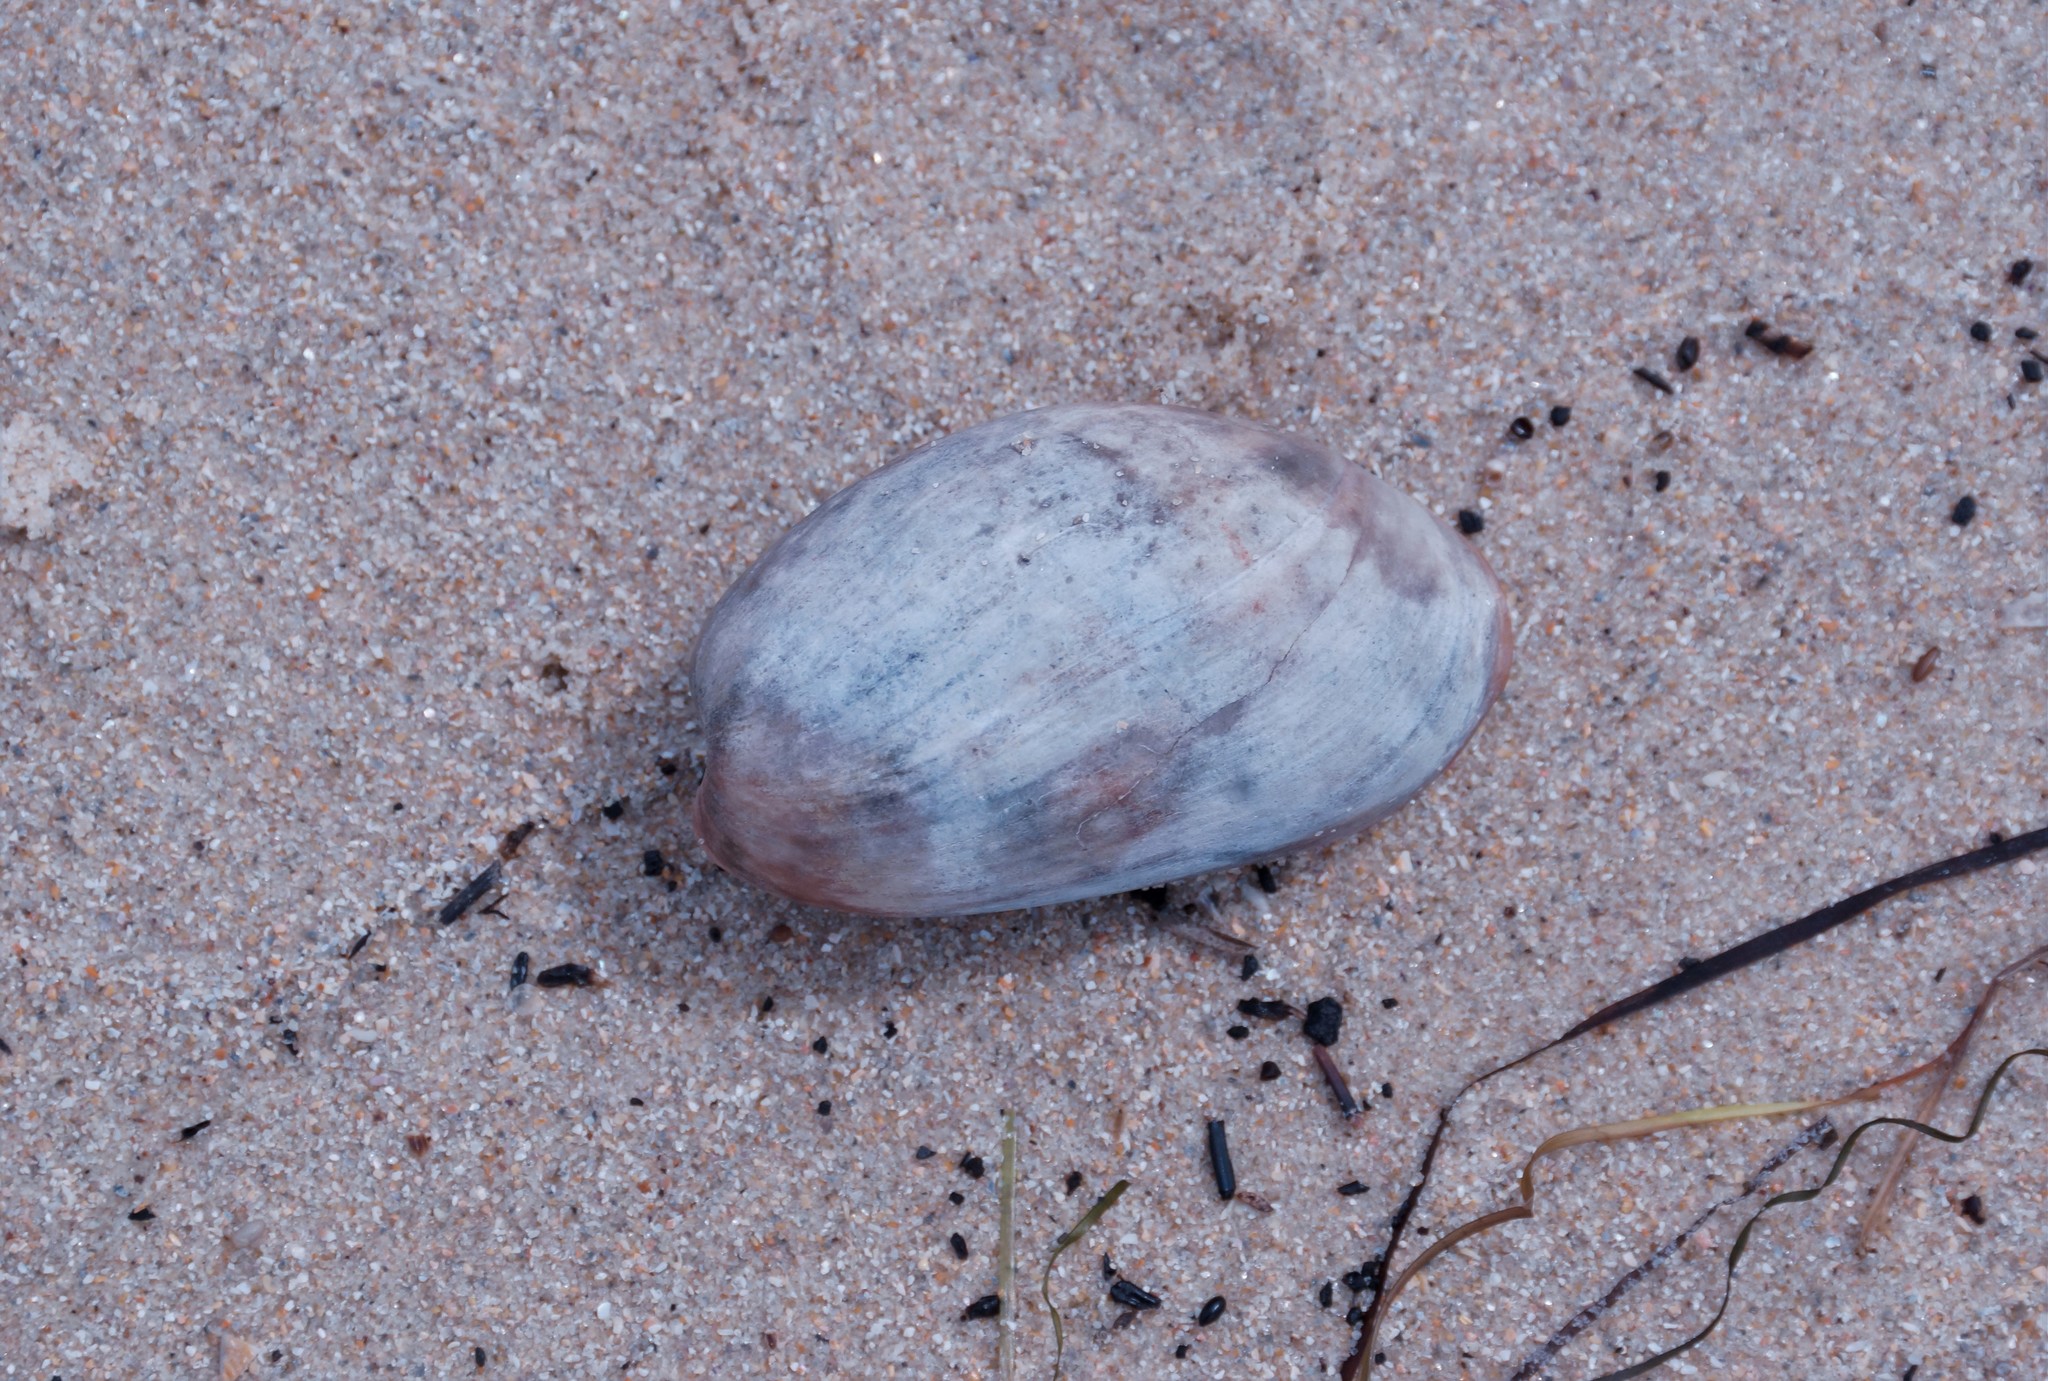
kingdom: Animalia
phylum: Mollusca
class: Gastropoda
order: Cephalaspidea
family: Bullidae
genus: Bulla
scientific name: Bulla quoyii
